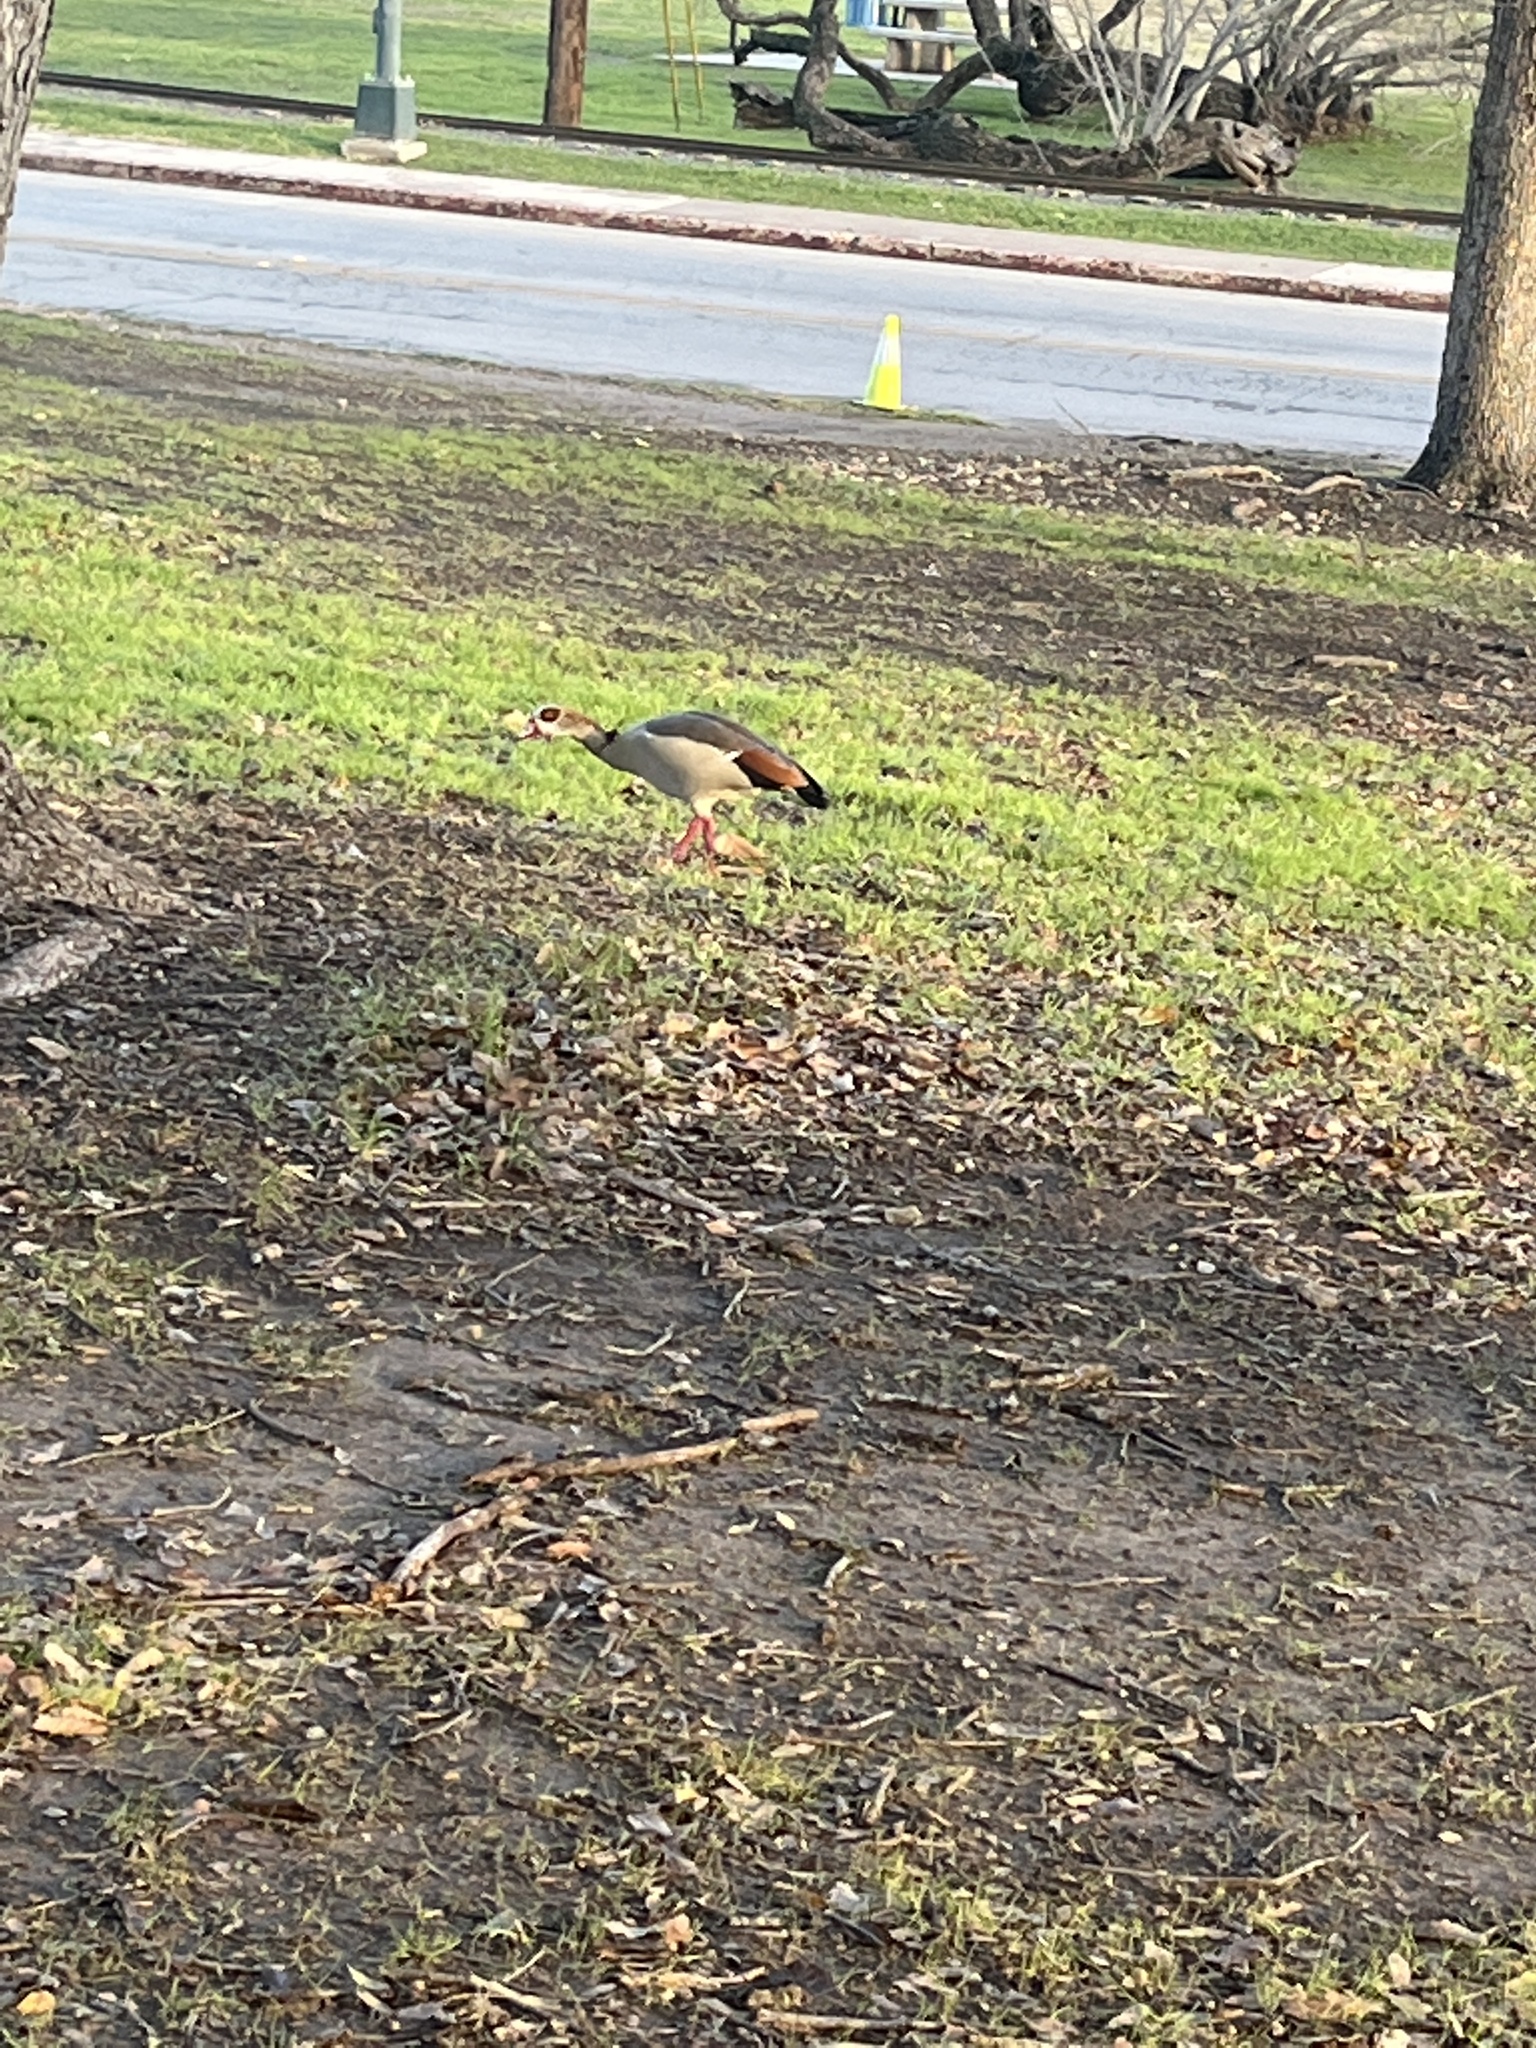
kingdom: Animalia
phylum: Chordata
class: Aves
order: Anseriformes
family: Anatidae
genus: Alopochen
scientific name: Alopochen aegyptiaca
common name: Egyptian goose
